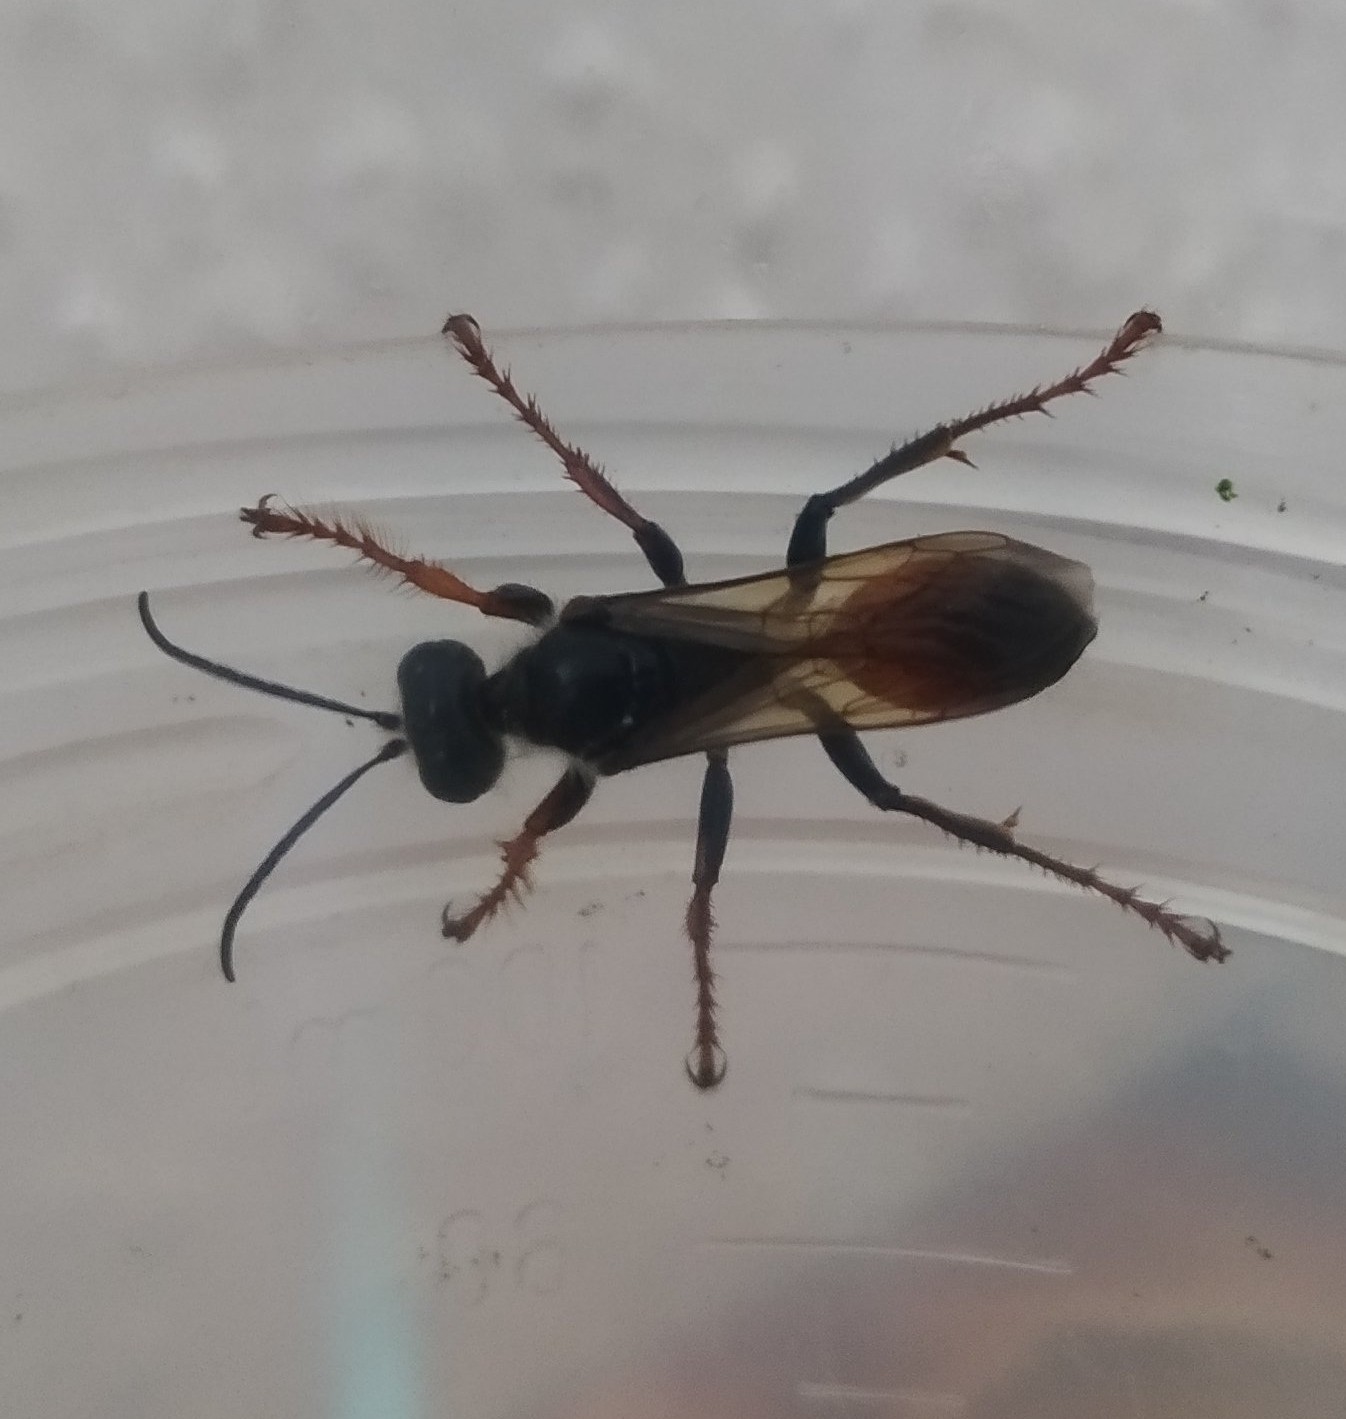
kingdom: Animalia
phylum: Arthropoda
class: Insecta
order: Hymenoptera
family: Sphecidae
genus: Sphex
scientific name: Sphex funerarius
